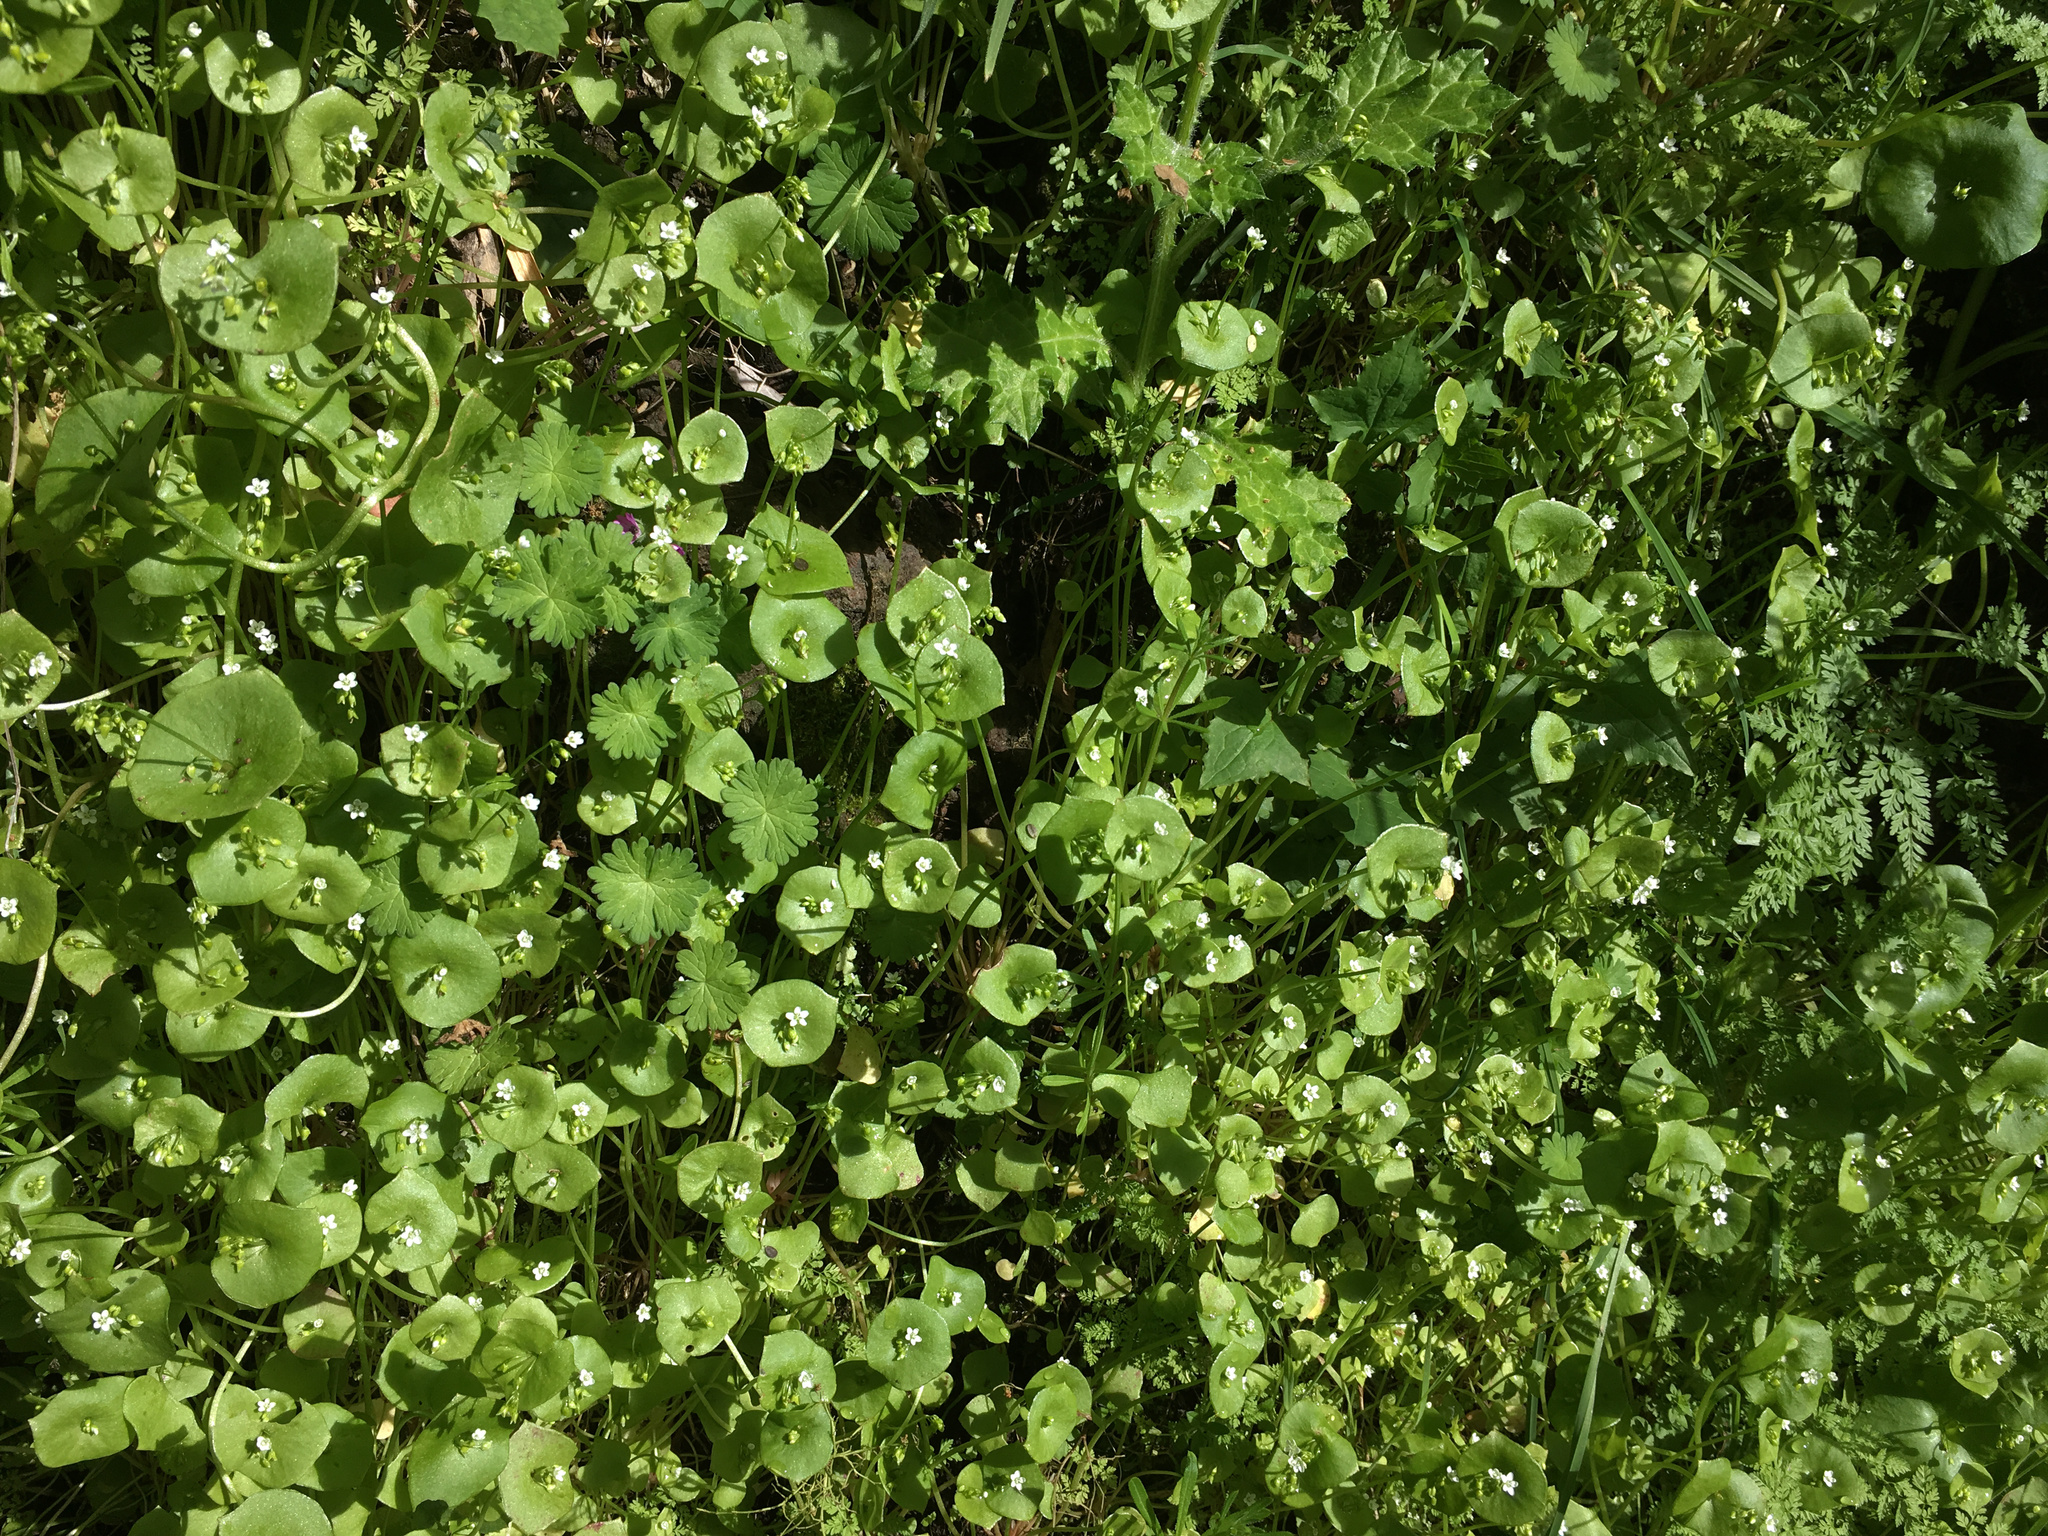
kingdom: Plantae
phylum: Tracheophyta
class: Magnoliopsida
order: Caryophyllales
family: Montiaceae
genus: Claytonia
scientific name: Claytonia perfoliata
